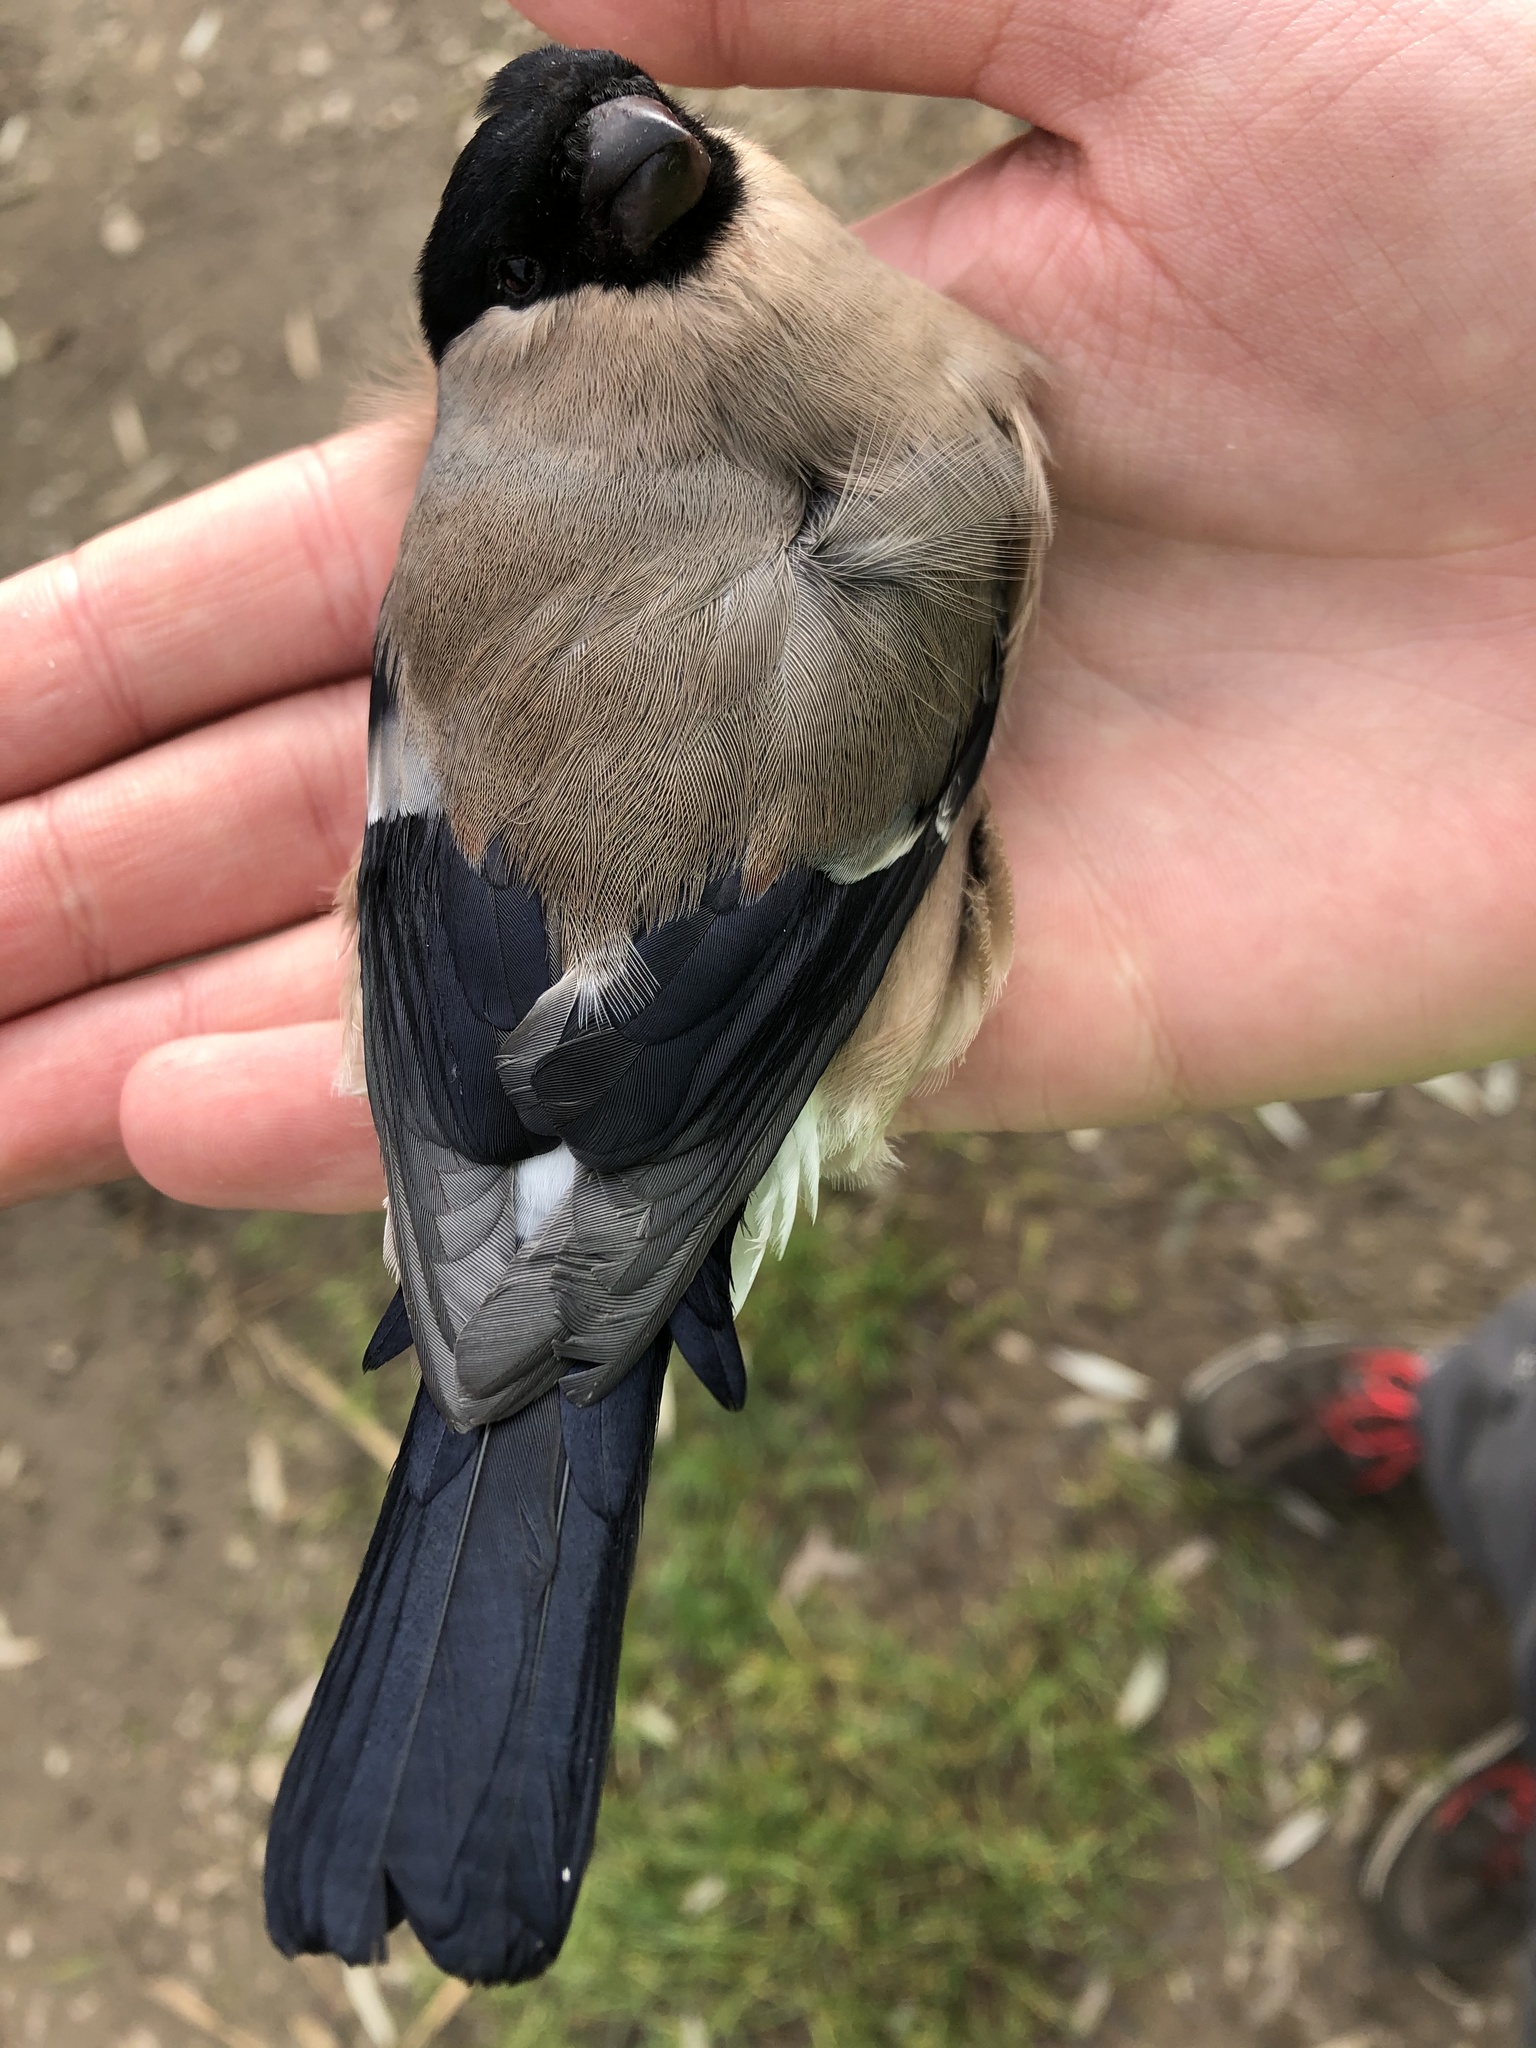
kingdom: Animalia
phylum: Chordata
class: Aves
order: Passeriformes
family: Fringillidae
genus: Pyrrhula
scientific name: Pyrrhula pyrrhula
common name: Eurasian bullfinch
